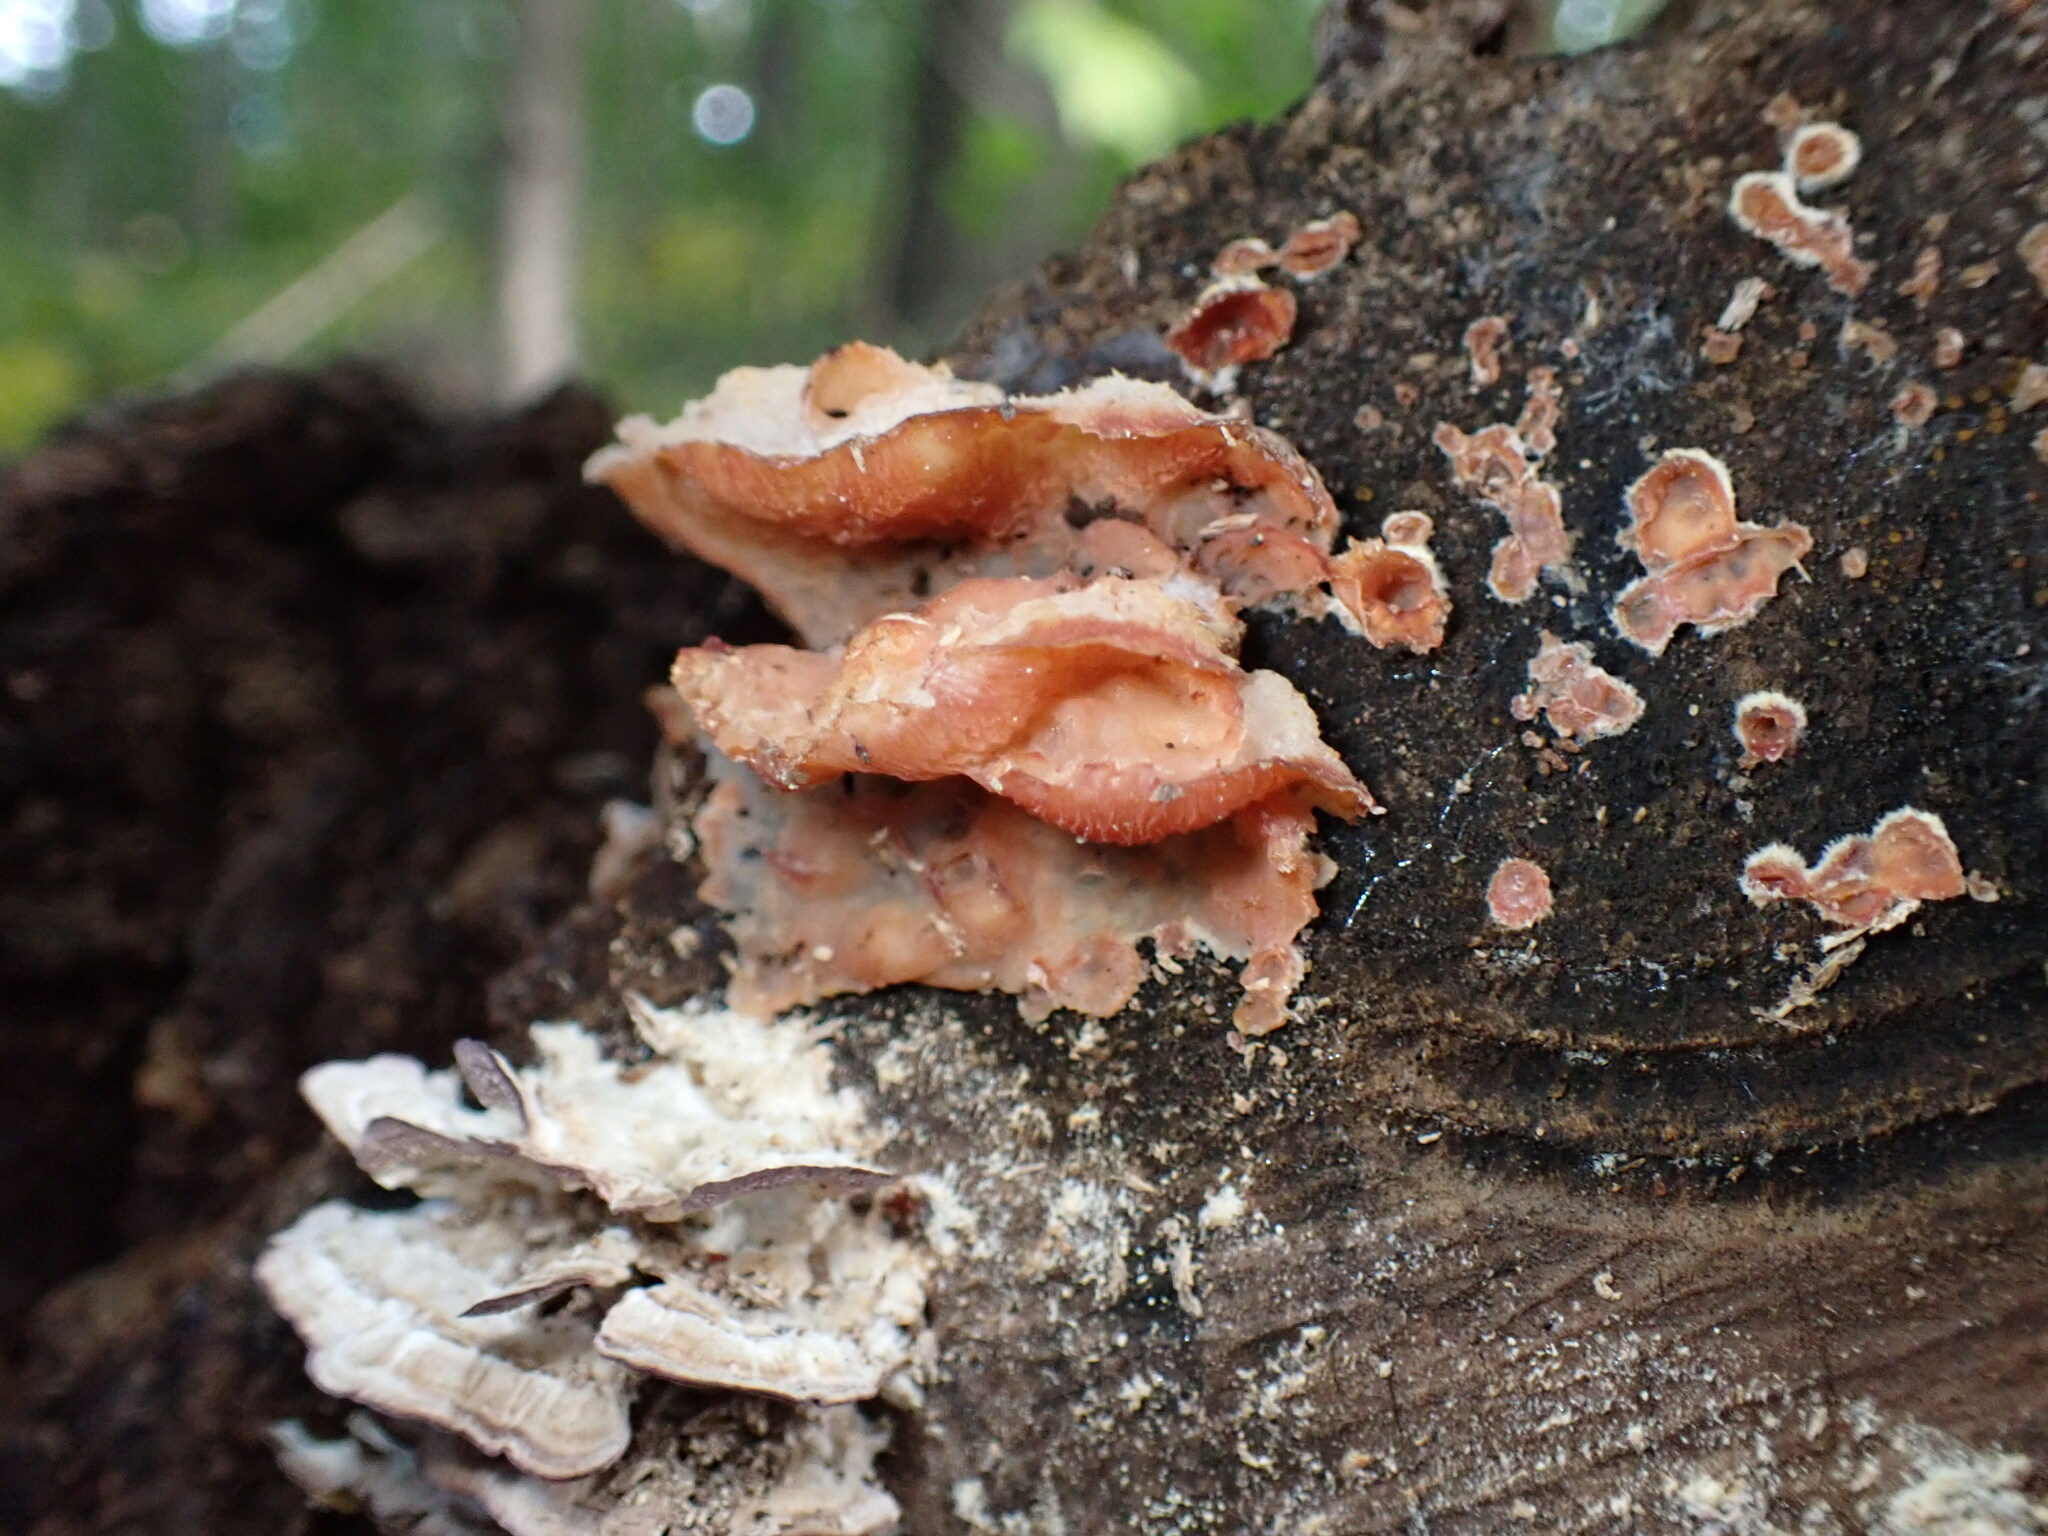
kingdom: Fungi
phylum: Basidiomycota
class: Agaricomycetes
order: Polyporales
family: Meruliaceae
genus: Phlebia
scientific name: Phlebia tremellosa
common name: Jelly rot
